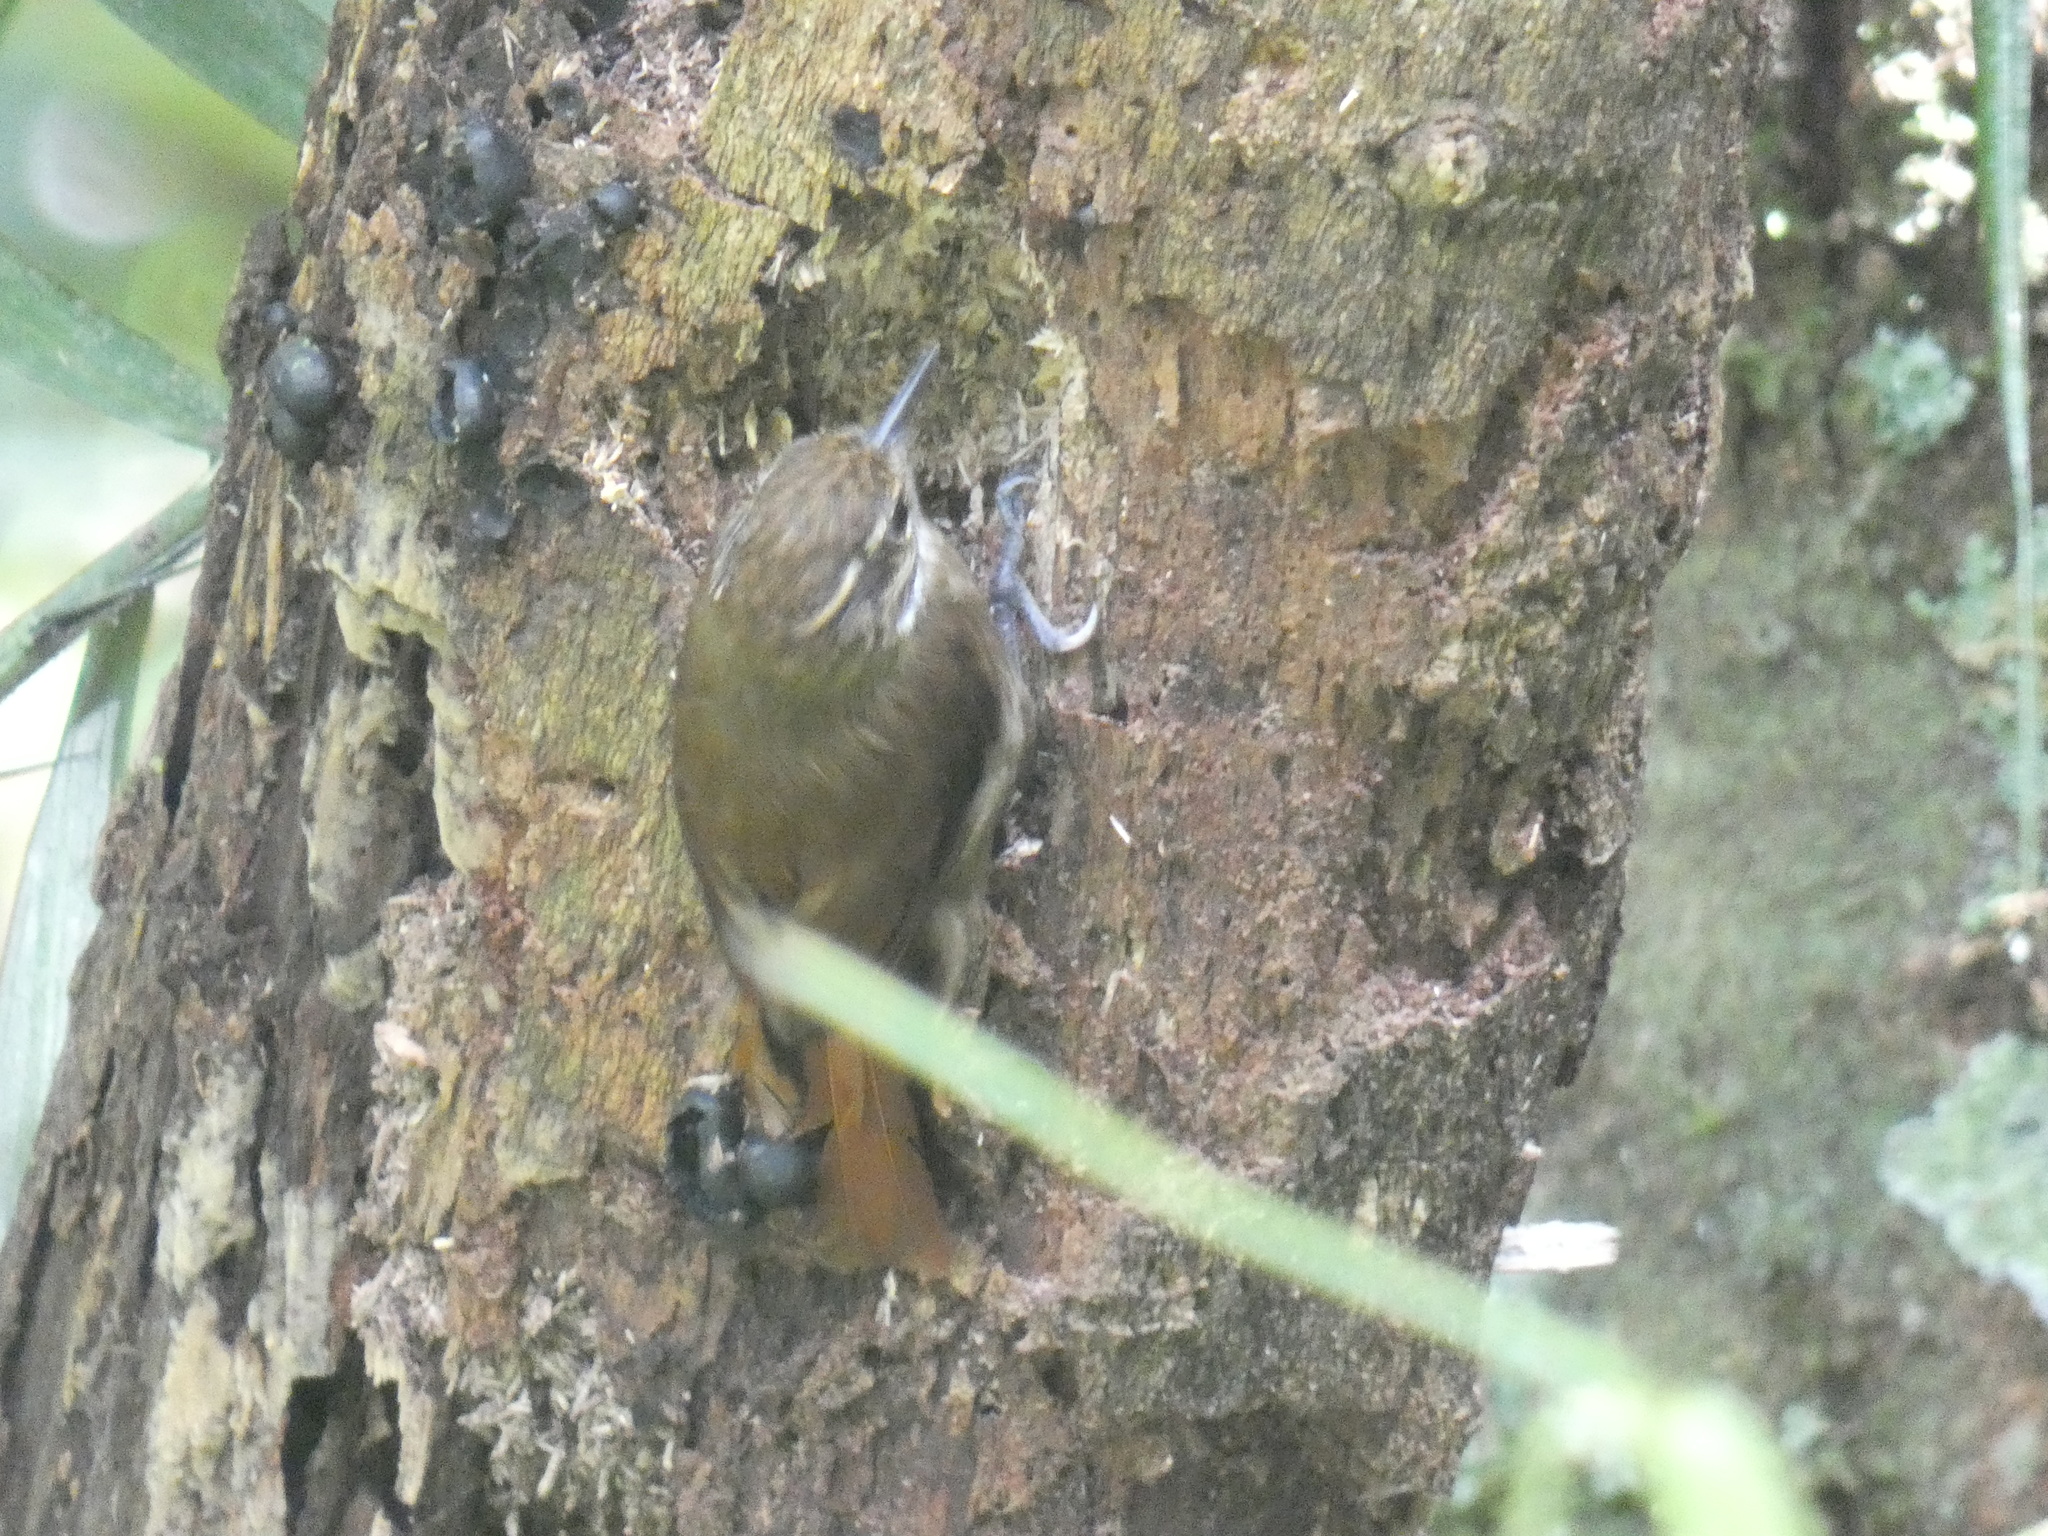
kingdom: Animalia
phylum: Chordata
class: Aves
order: Passeriformes
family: Furnariidae
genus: Xenops
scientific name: Xenops minutus
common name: Plain xenops
